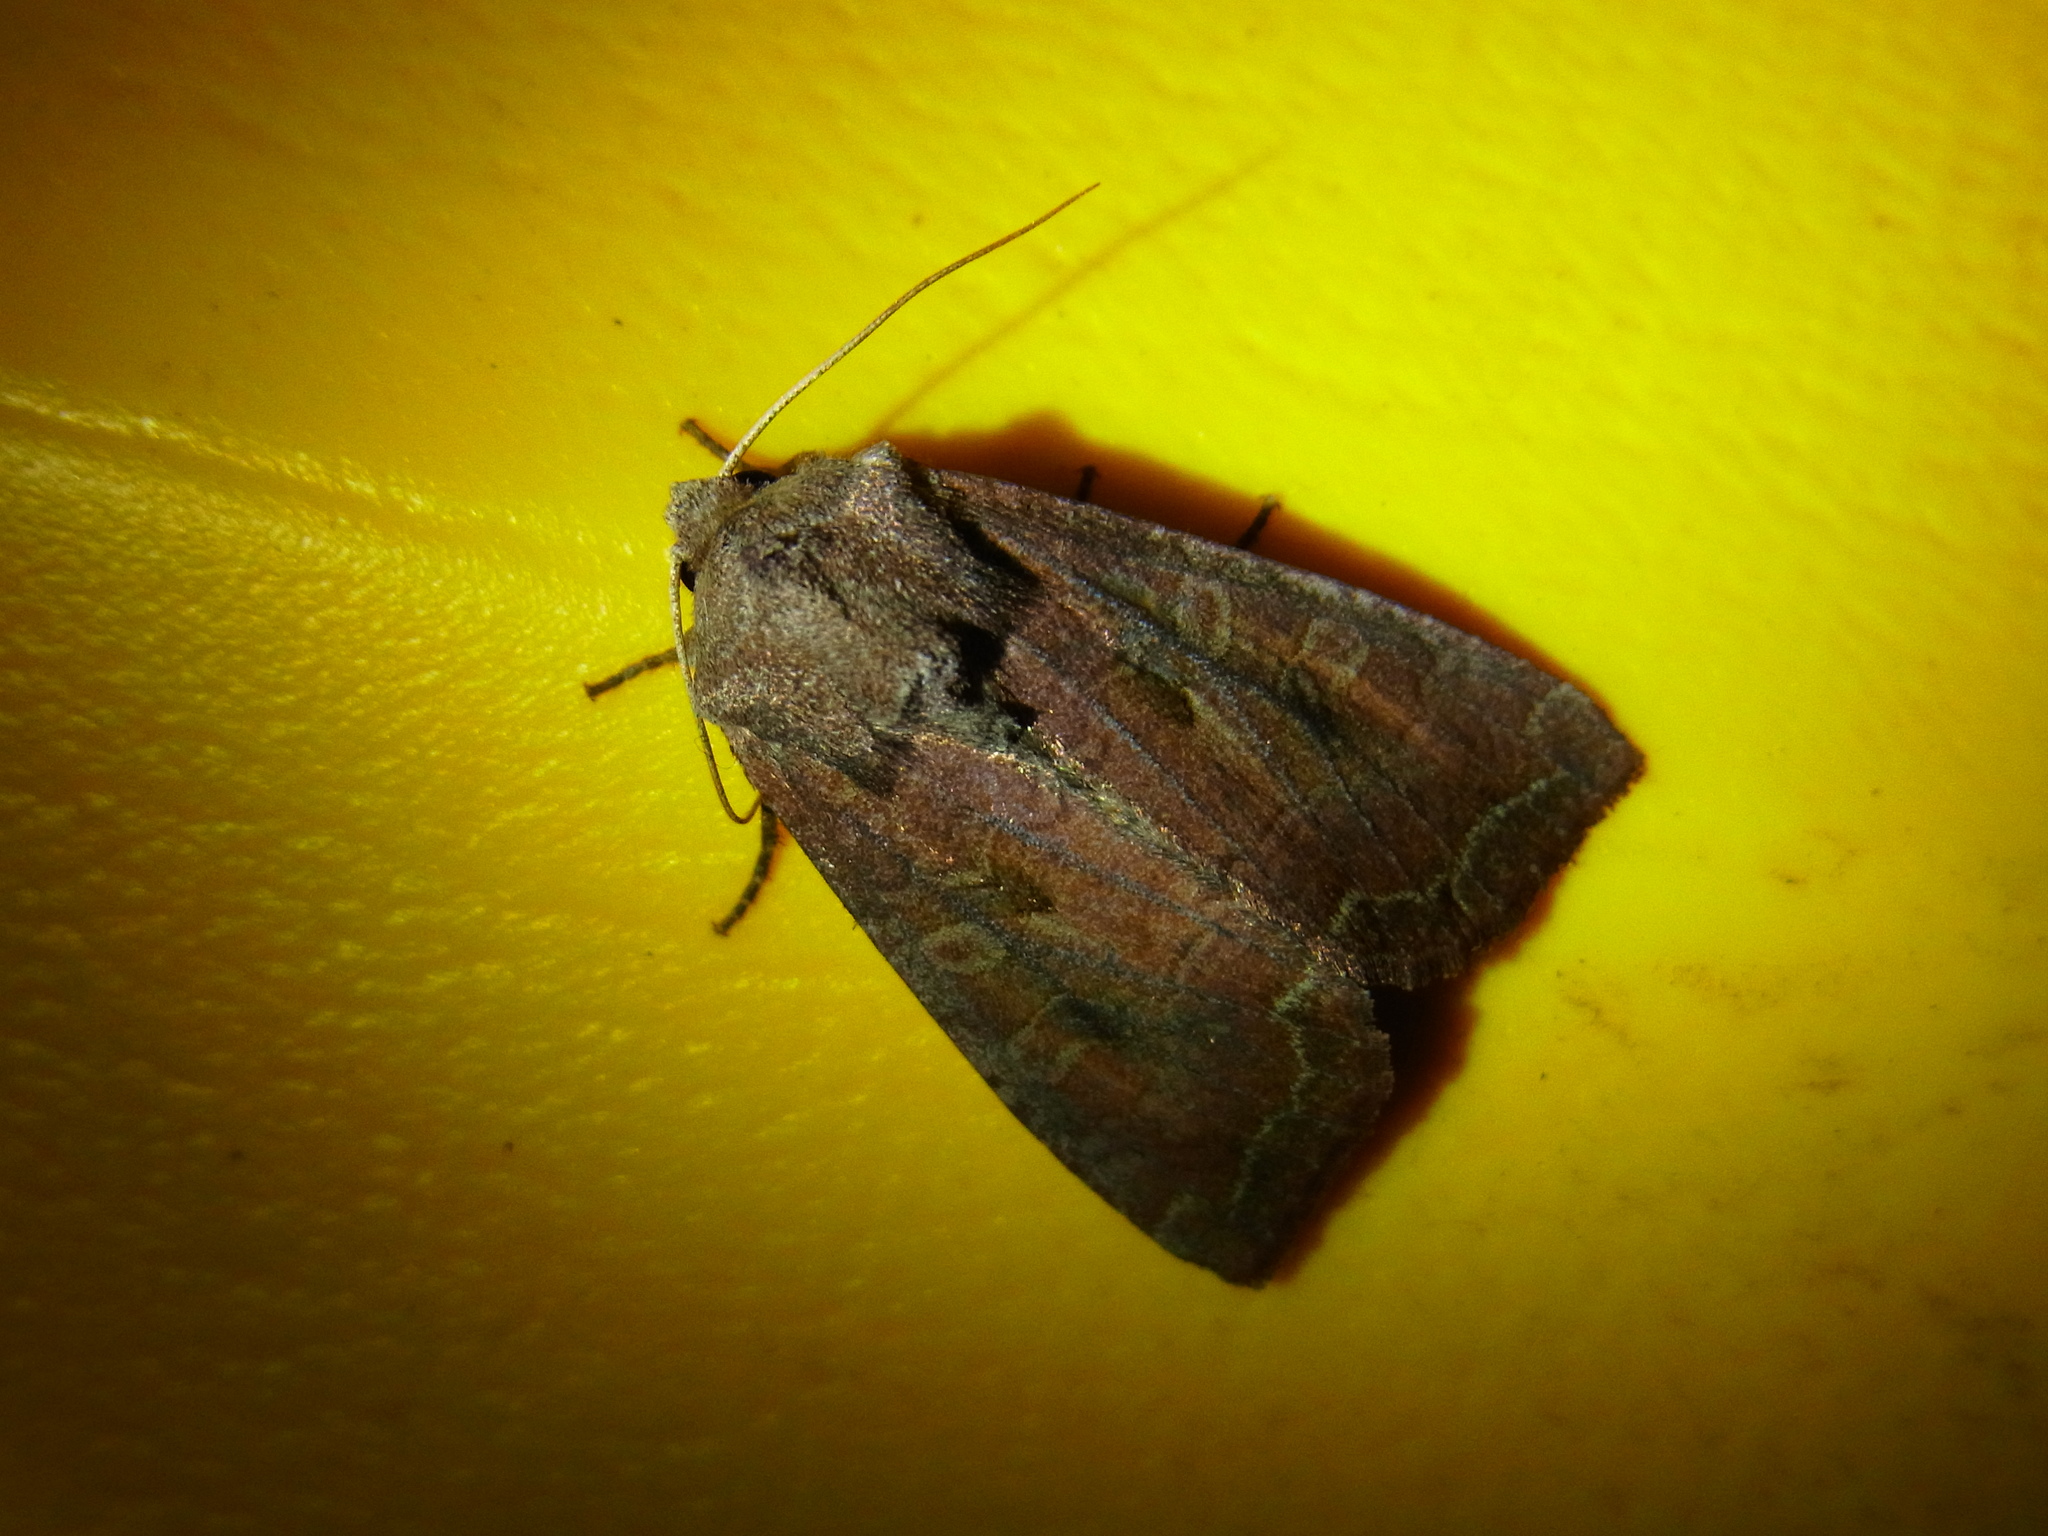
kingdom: Animalia
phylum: Arthropoda
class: Insecta
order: Lepidoptera
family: Noctuidae
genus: Hadena
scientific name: Hadena illoba
